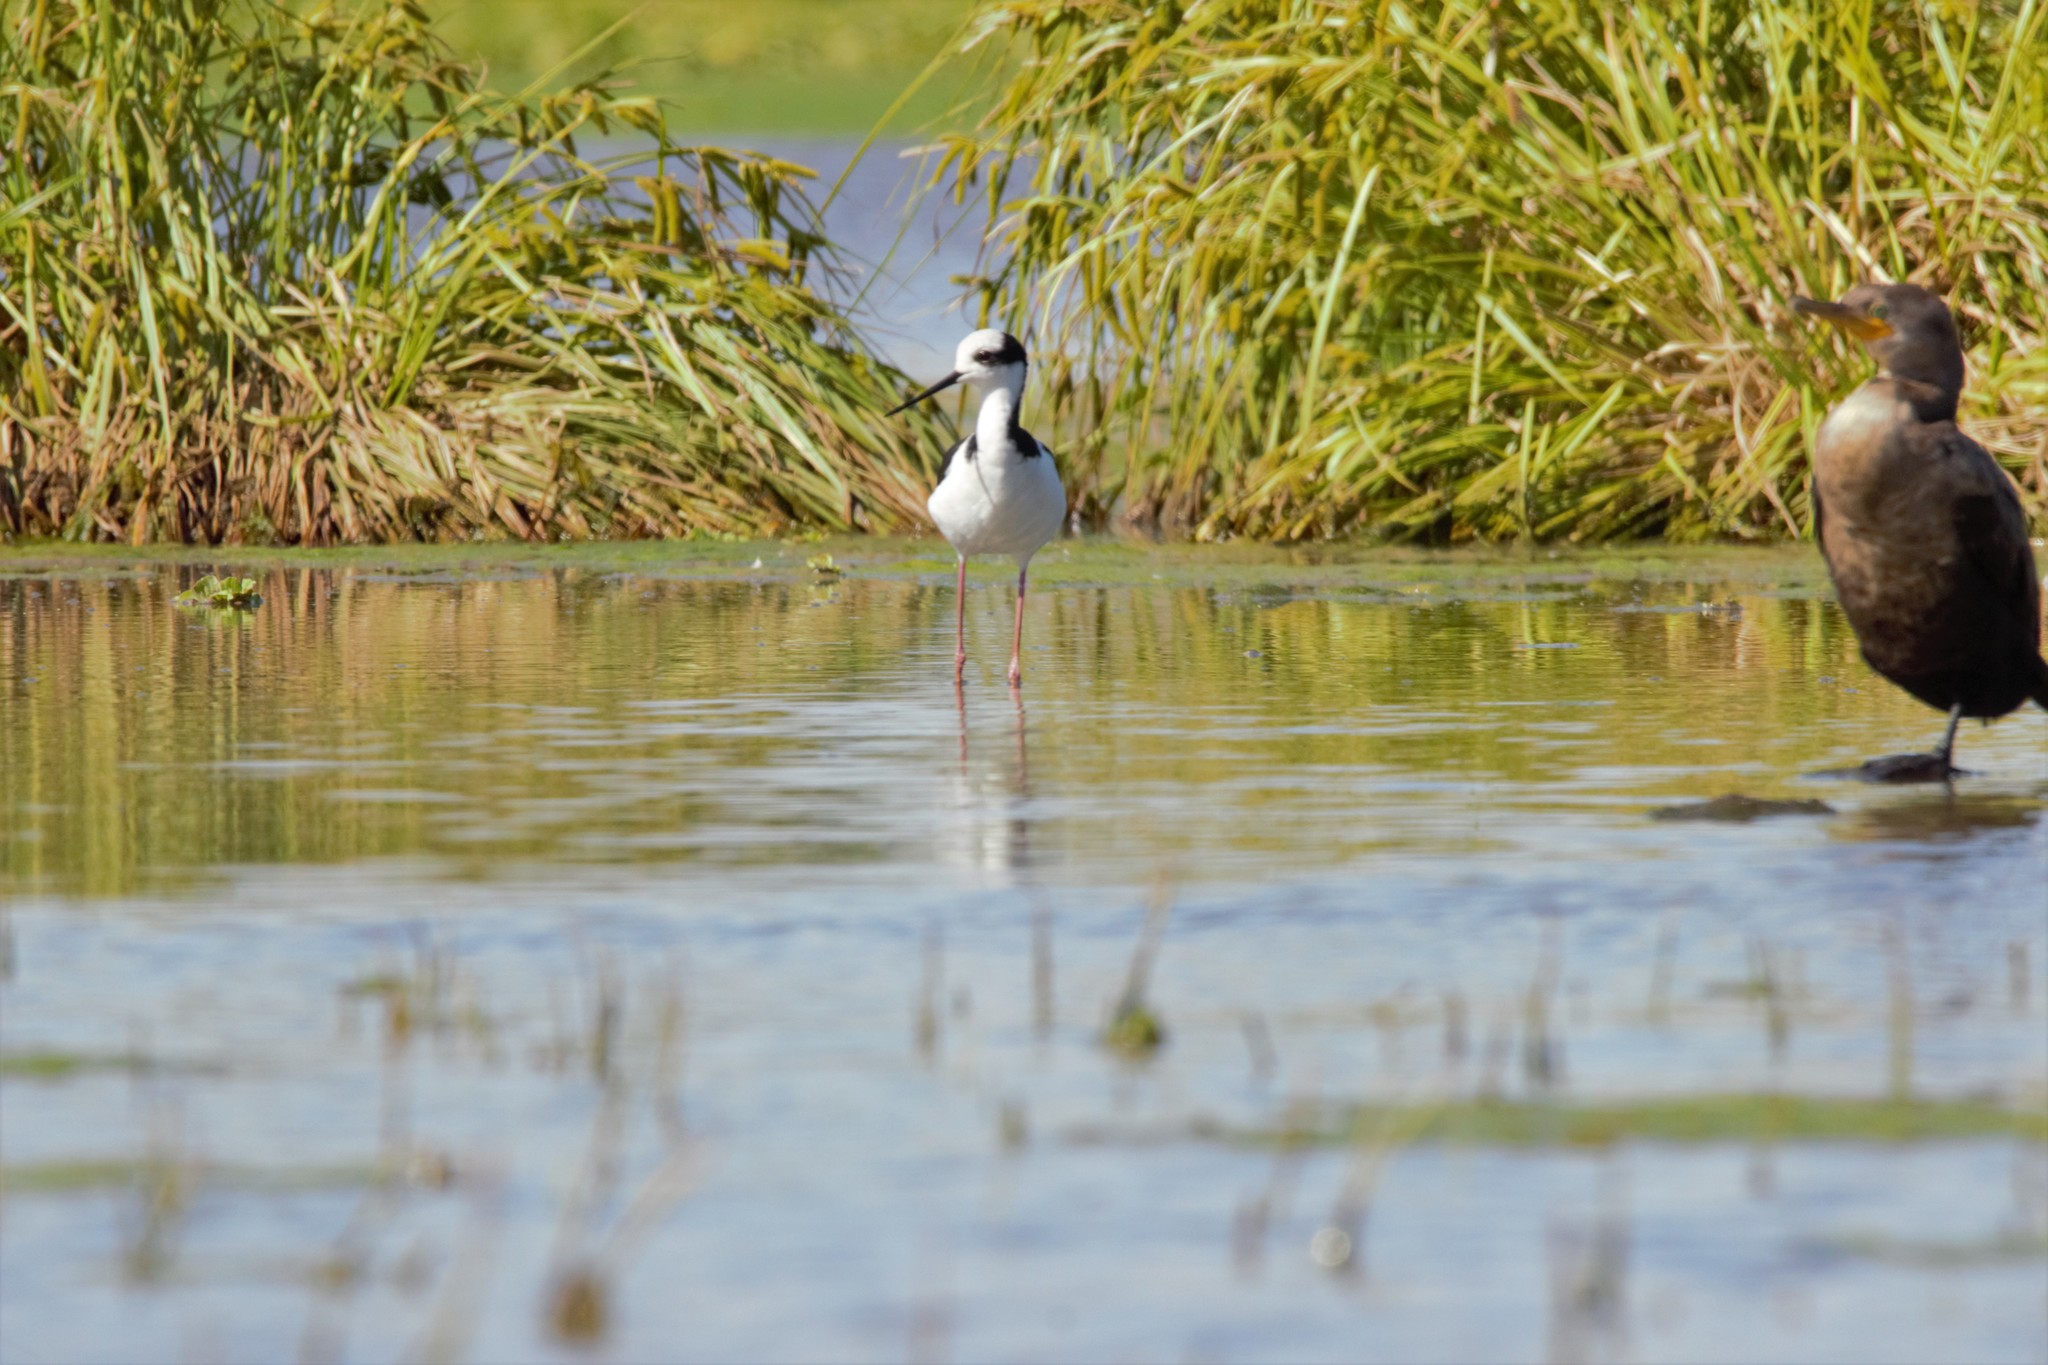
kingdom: Animalia
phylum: Chordata
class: Aves
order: Charadriiformes
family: Recurvirostridae
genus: Himantopus
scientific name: Himantopus mexicanus
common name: Black-necked stilt
